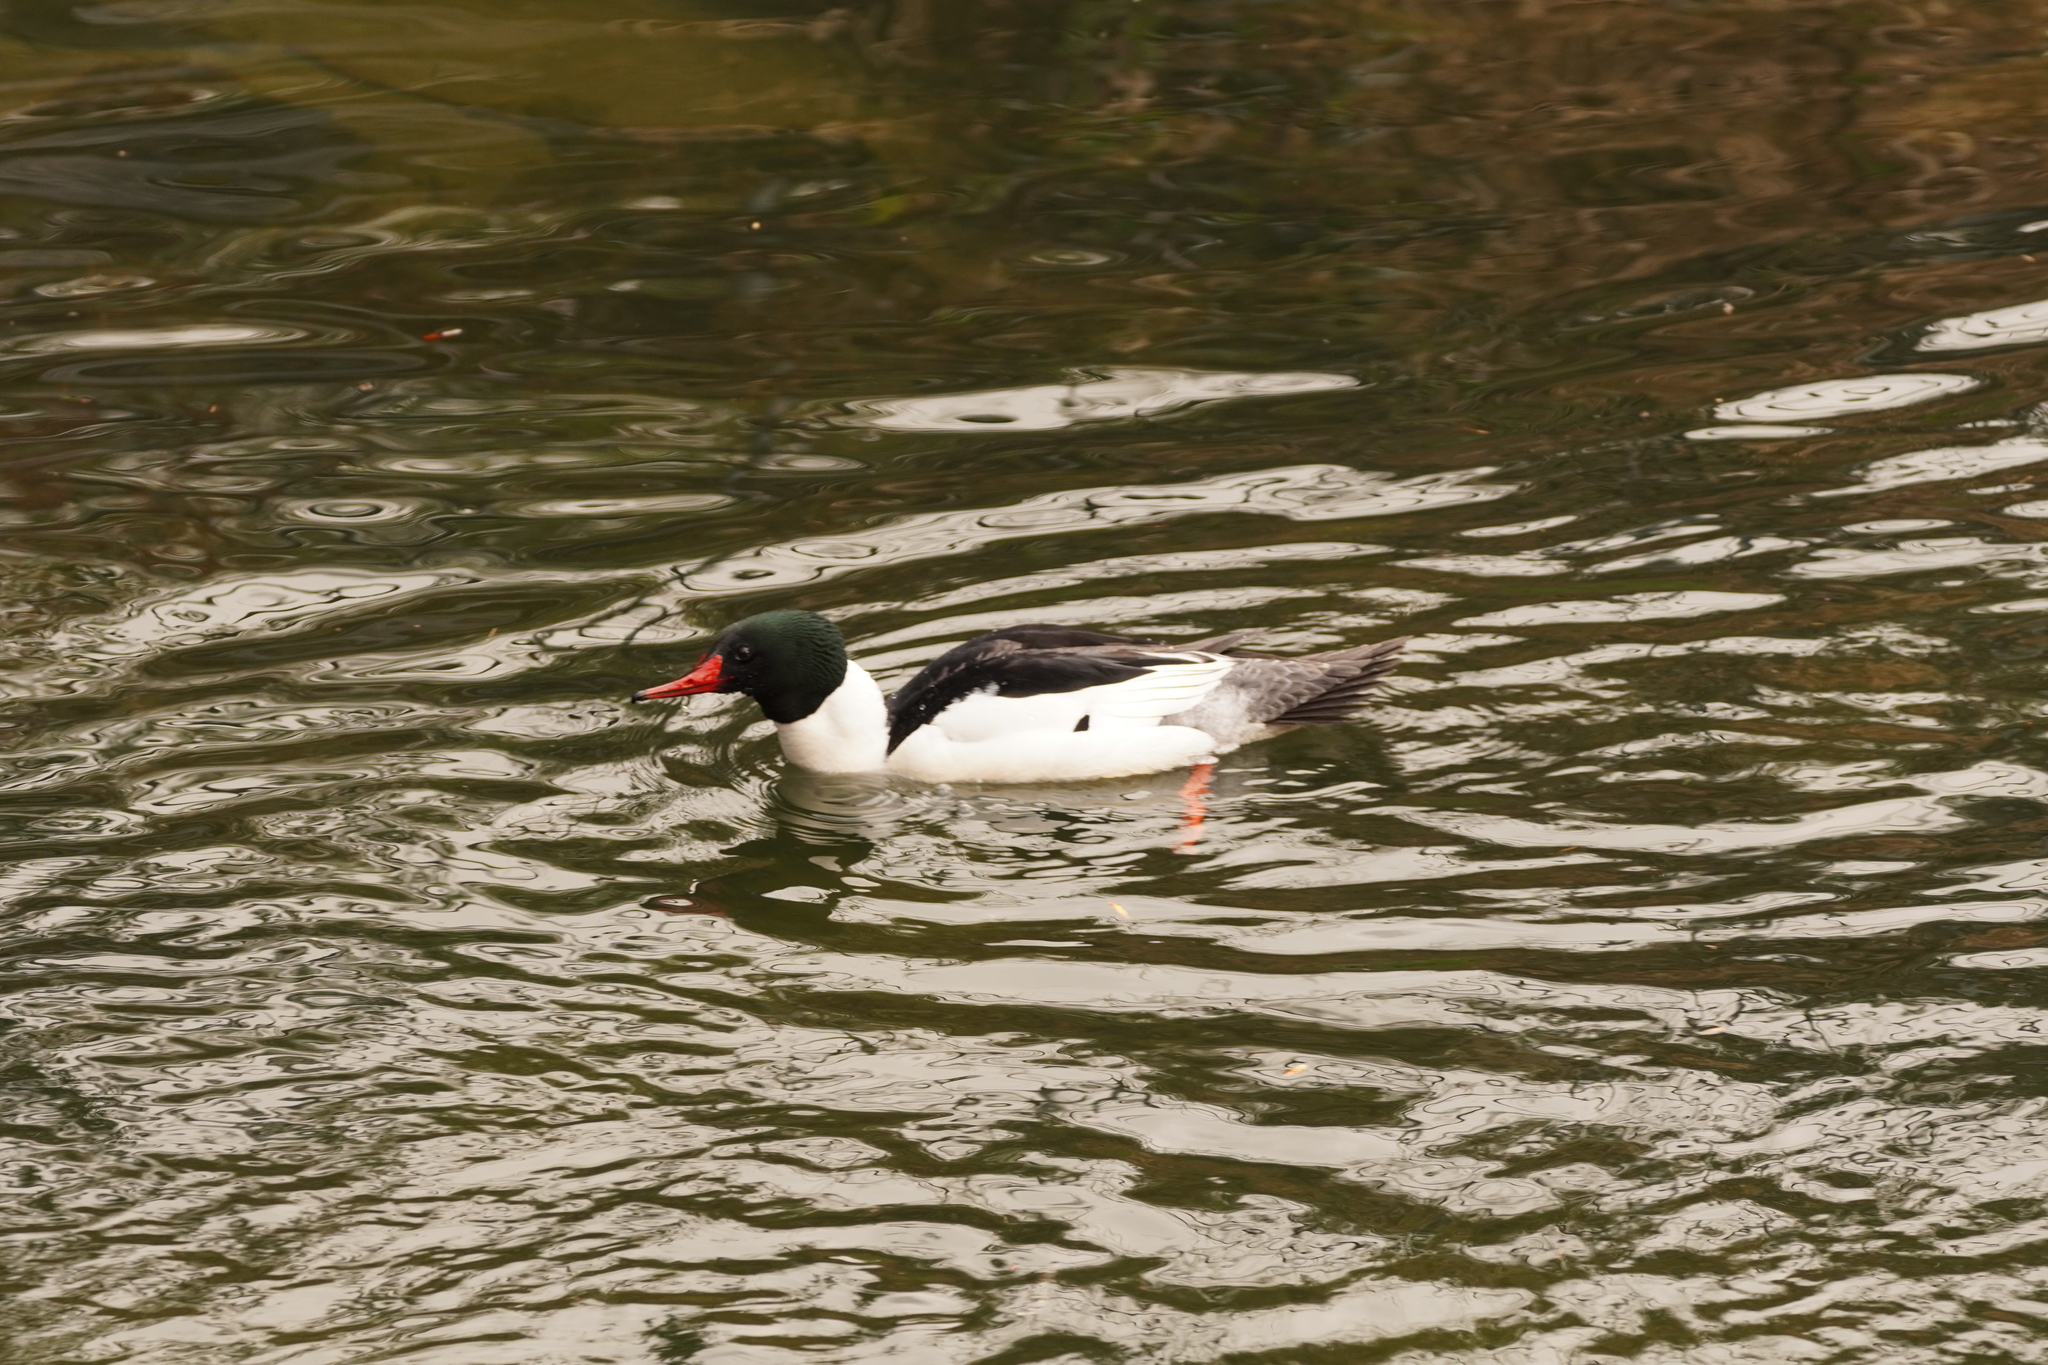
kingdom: Animalia
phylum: Chordata
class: Aves
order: Anseriformes
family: Anatidae
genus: Mergus
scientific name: Mergus merganser
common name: Common merganser
